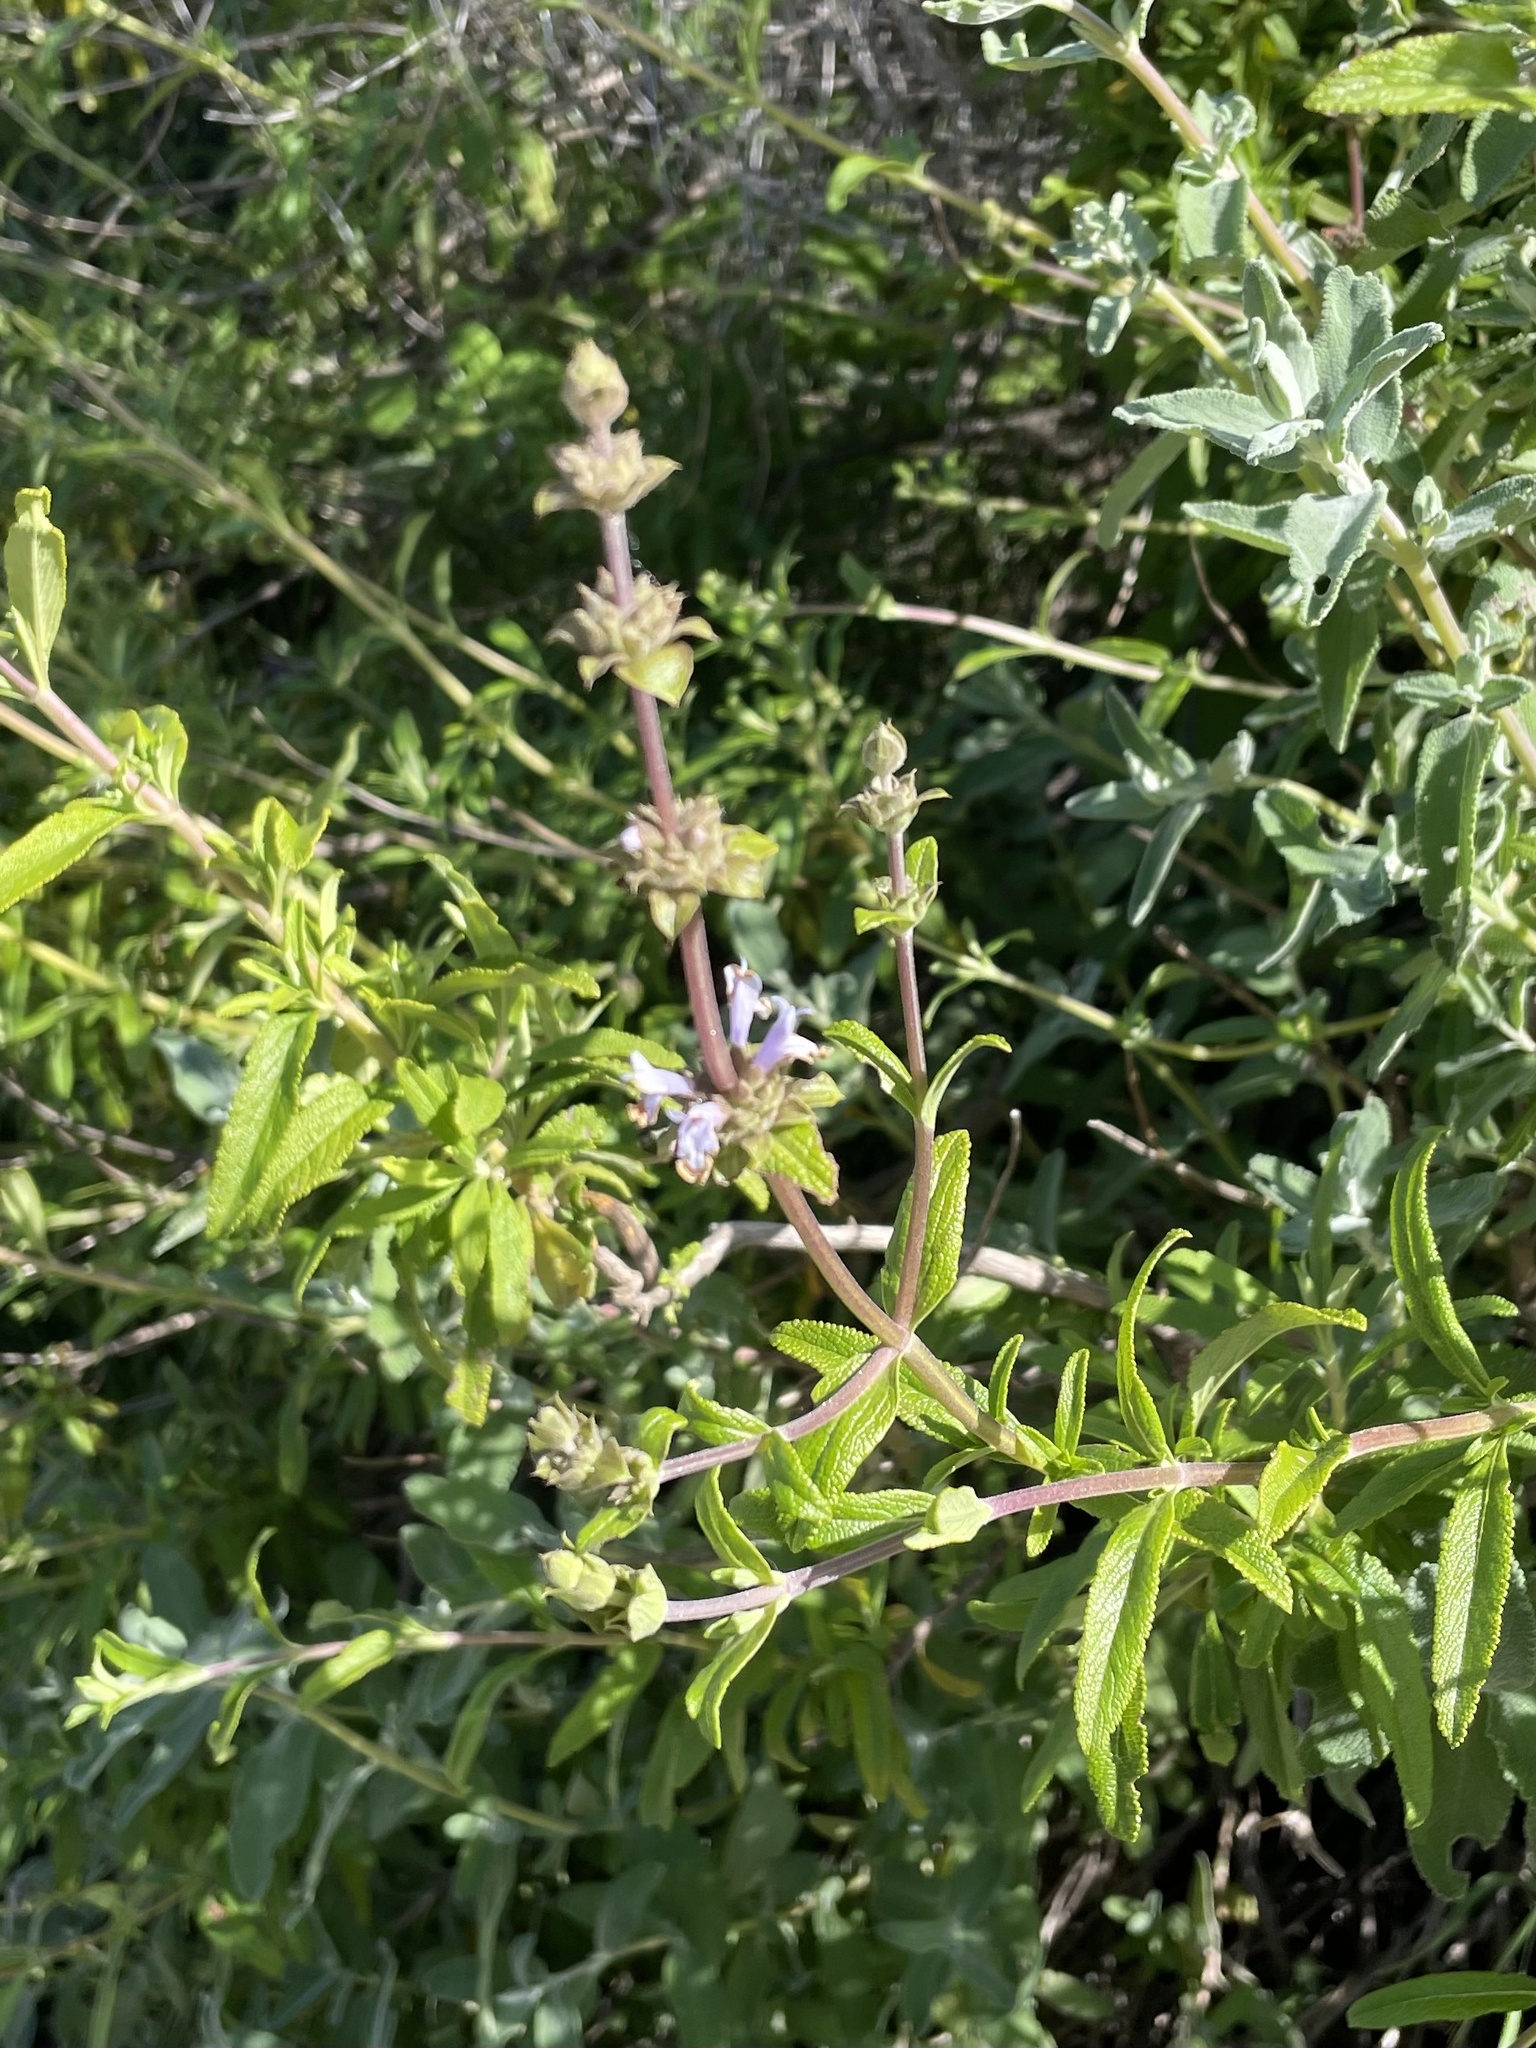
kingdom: Plantae
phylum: Tracheophyta
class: Magnoliopsida
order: Lamiales
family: Lamiaceae
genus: Salvia
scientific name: Salvia mellifera
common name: Black sage
